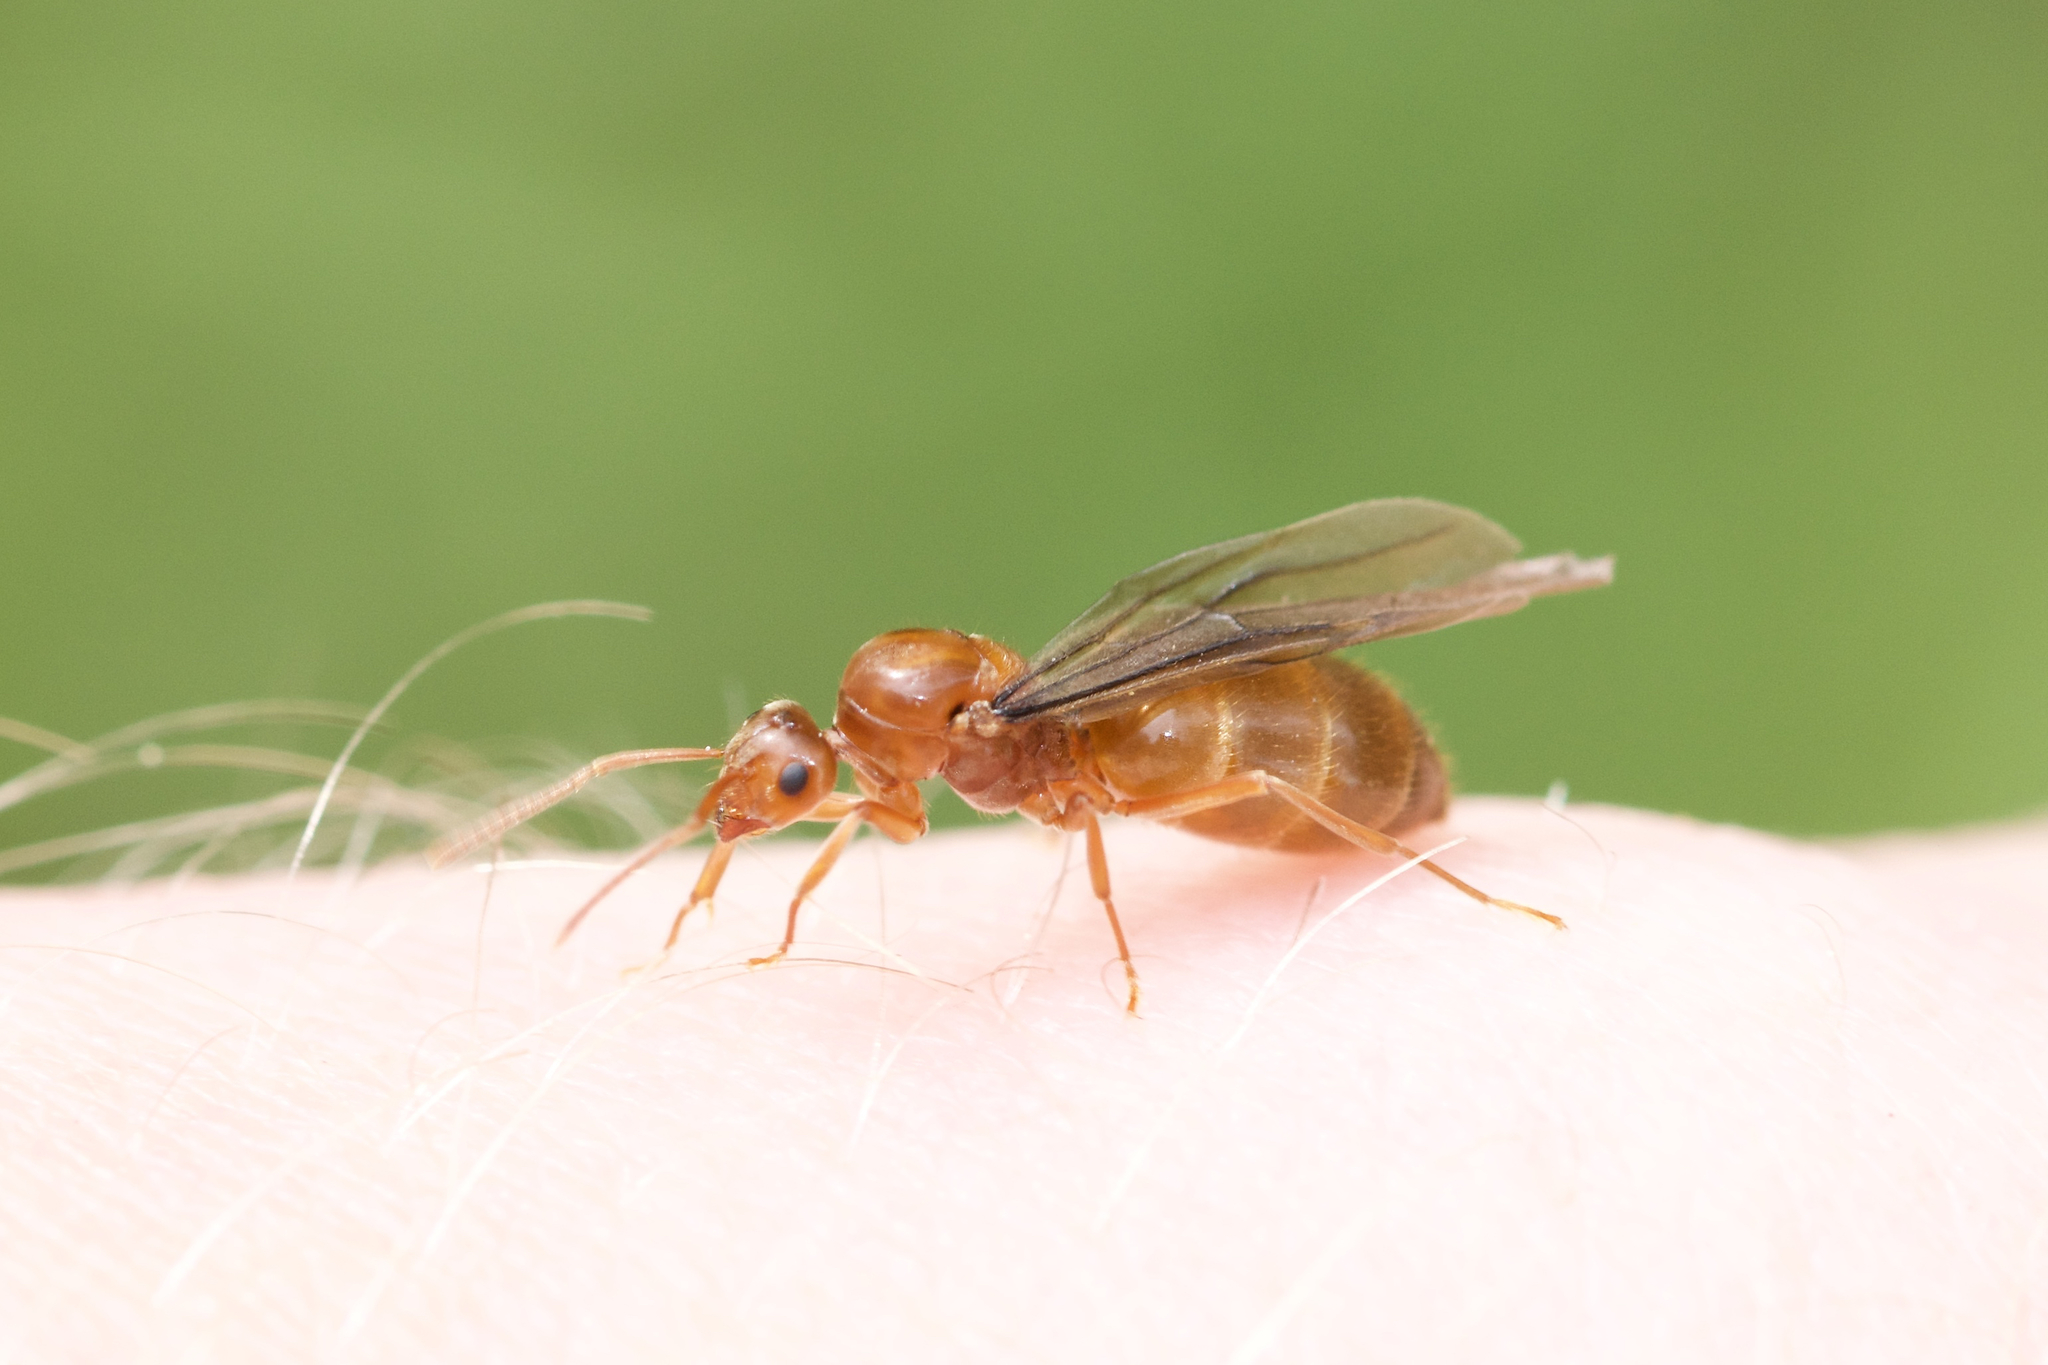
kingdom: Animalia
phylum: Arthropoda
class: Insecta
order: Hymenoptera
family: Formicidae
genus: Prenolepis
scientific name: Prenolepis imparis
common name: Small honey ant
